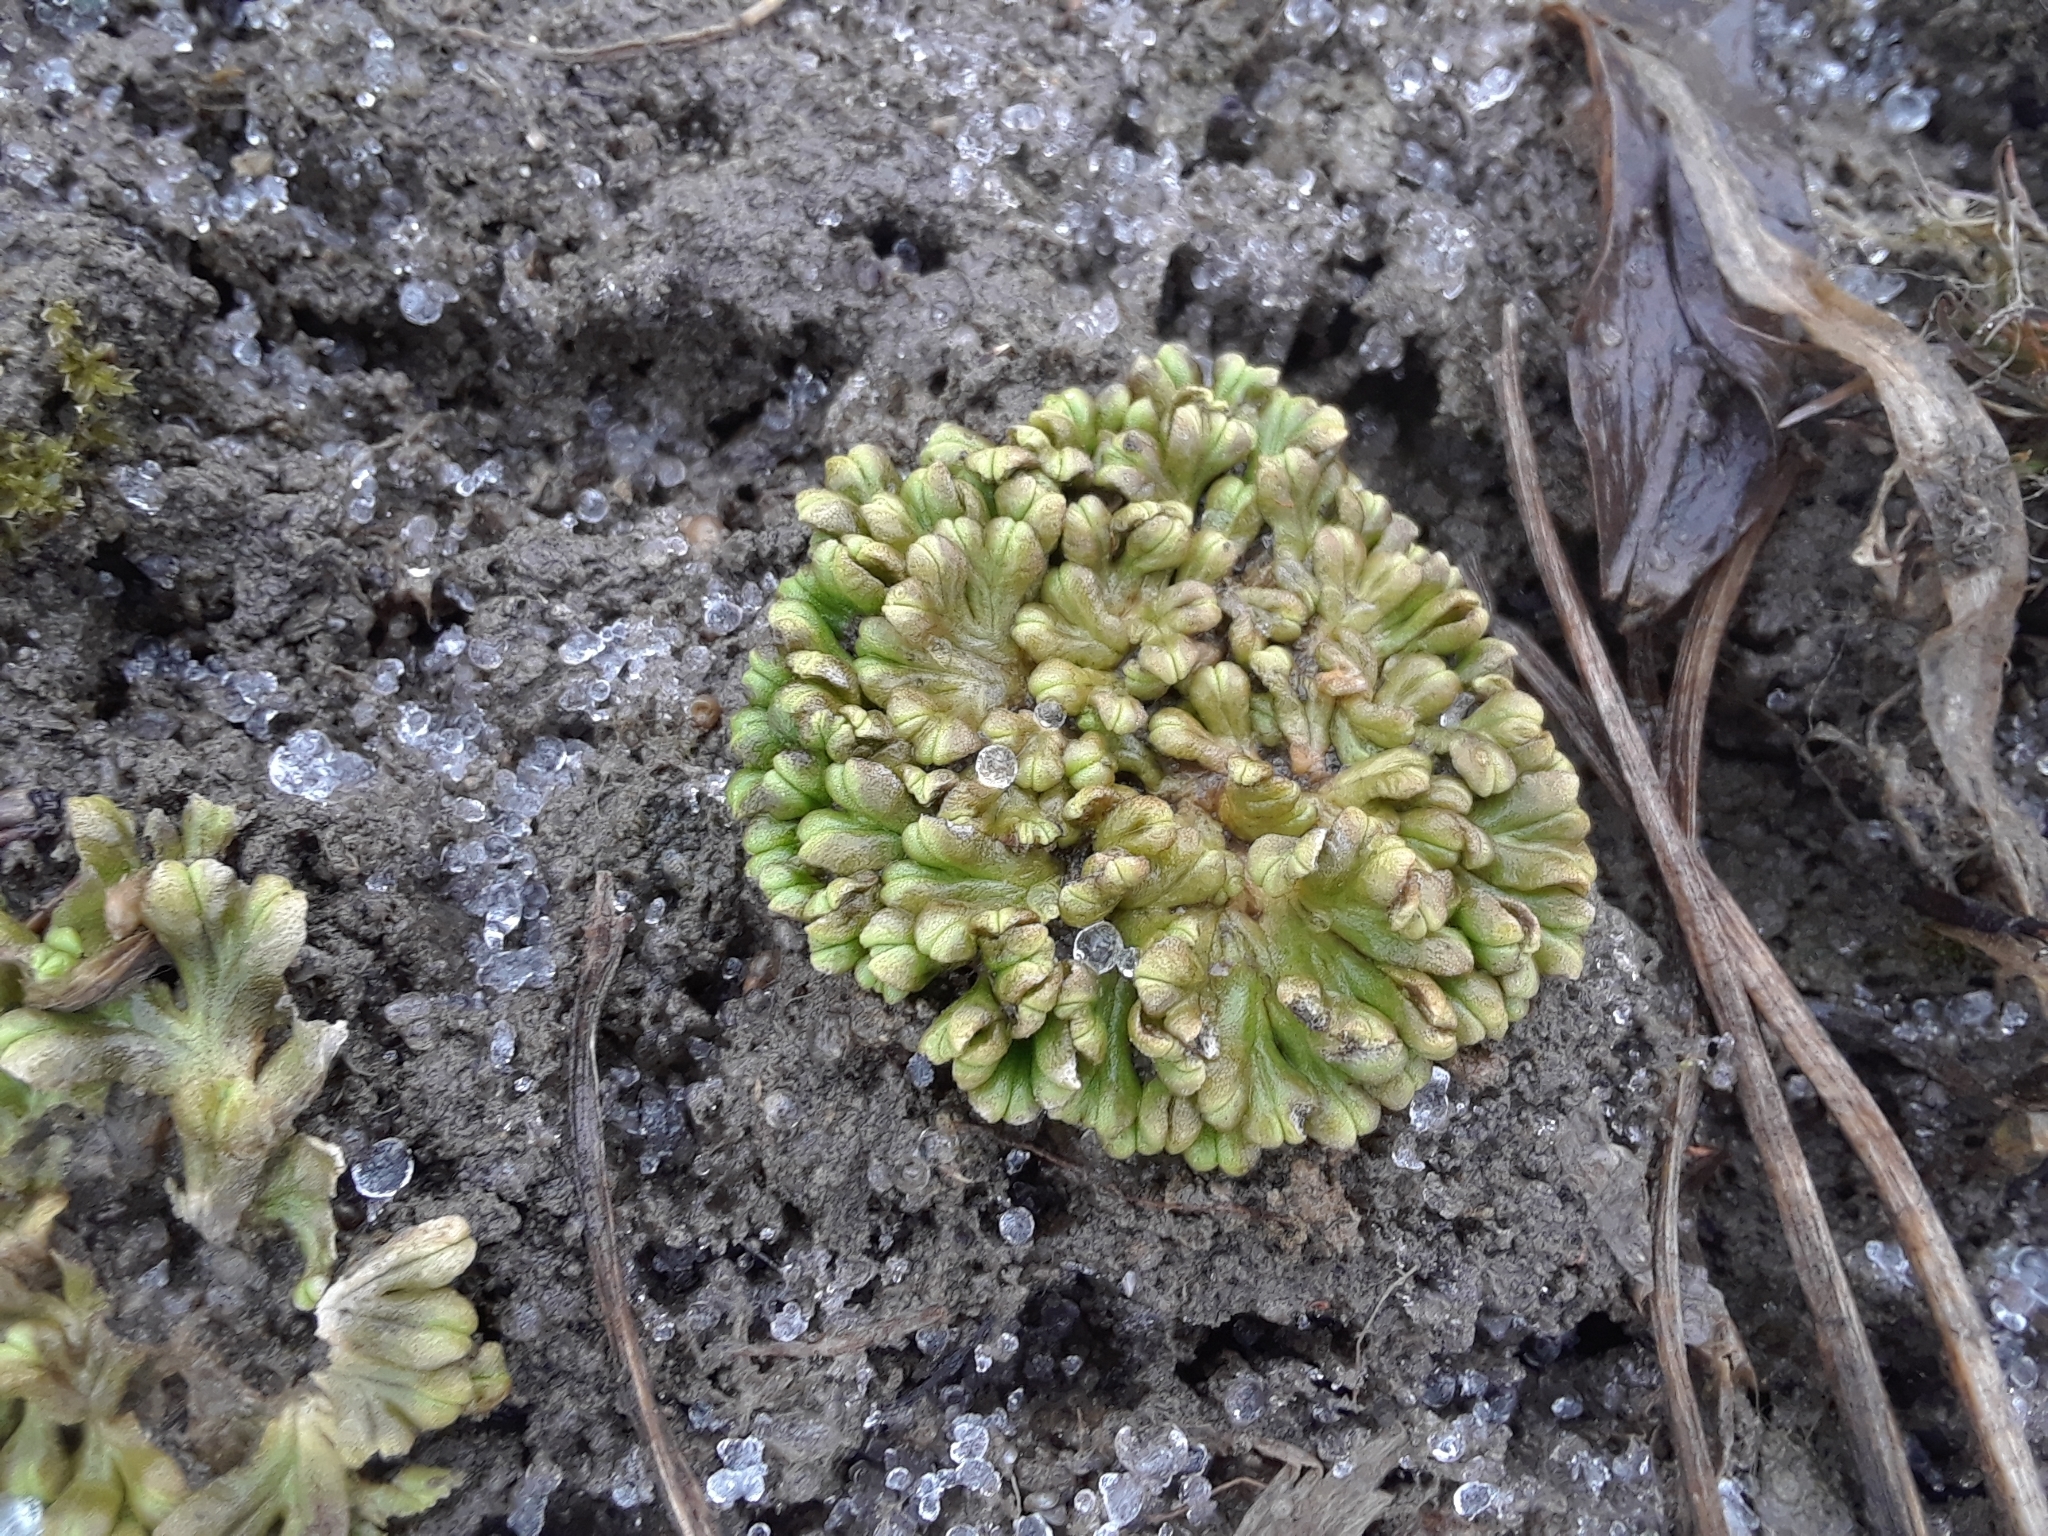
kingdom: Plantae
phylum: Marchantiophyta
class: Marchantiopsida
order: Marchantiales
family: Ricciaceae
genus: Ricciocarpos
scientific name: Ricciocarpos natans
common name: Purple-fringed liverwort
